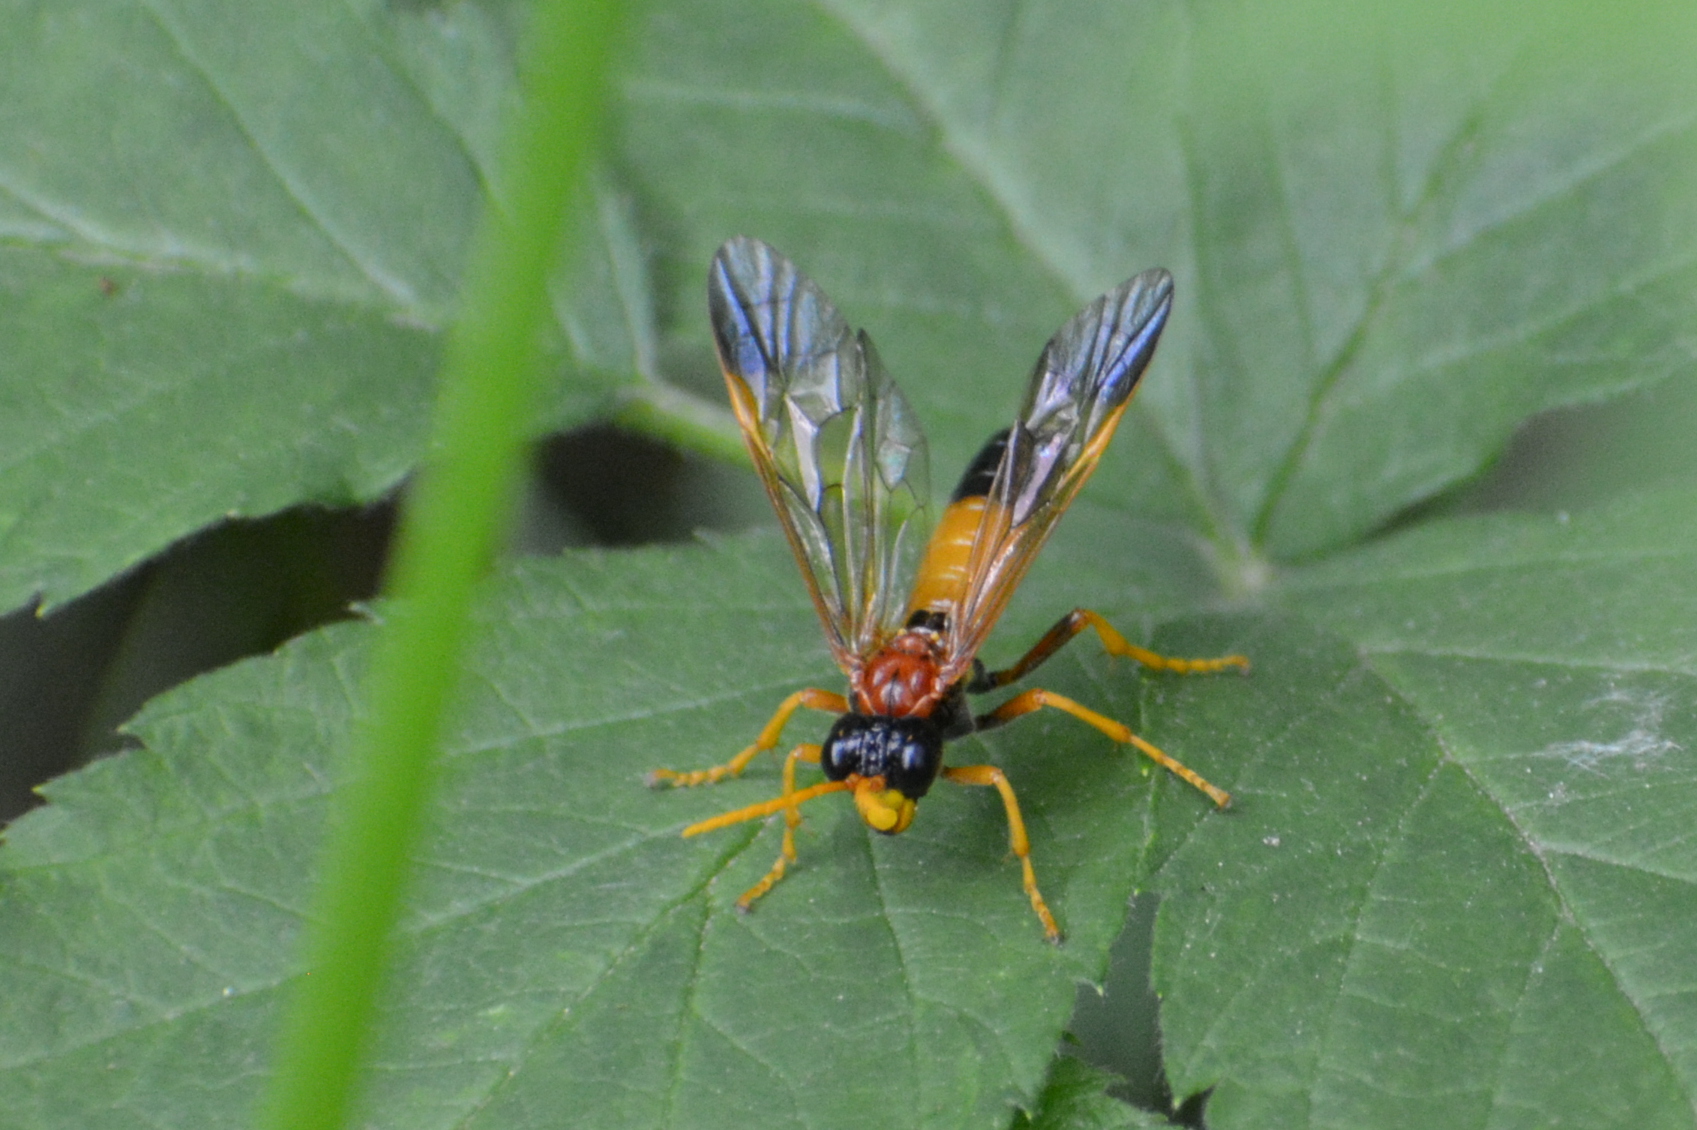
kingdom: Animalia
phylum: Arthropoda
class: Insecta
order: Hymenoptera
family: Tenthredinidae
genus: Tenthredo
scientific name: Tenthredo campestris
